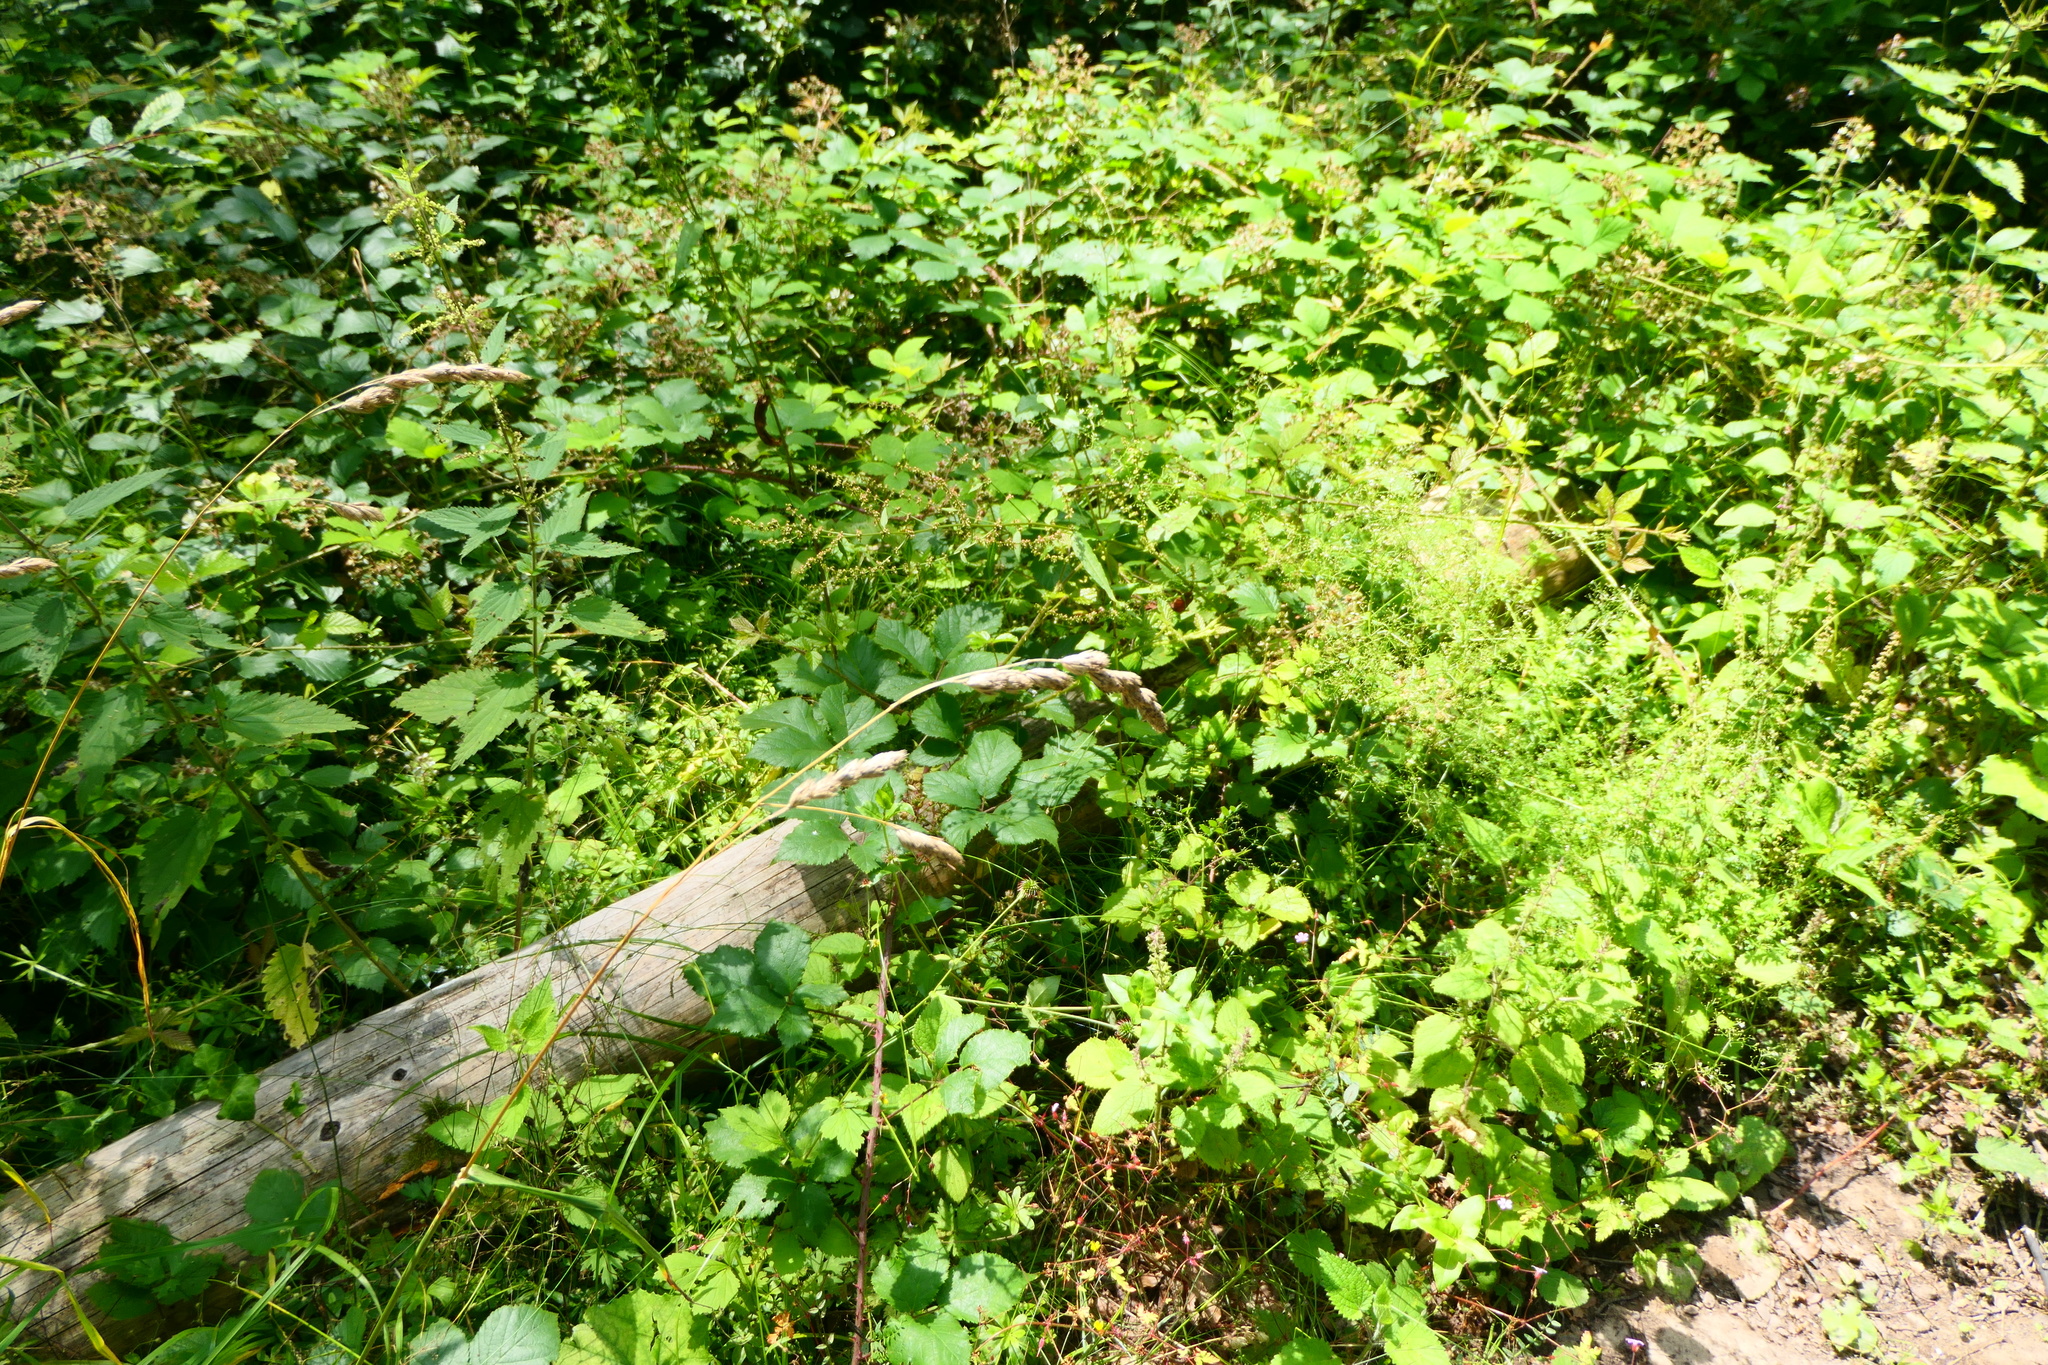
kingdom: Plantae
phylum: Tracheophyta
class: Liliopsida
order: Poales
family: Poaceae
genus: Dactylis
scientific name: Dactylis glomerata
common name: Orchardgrass
